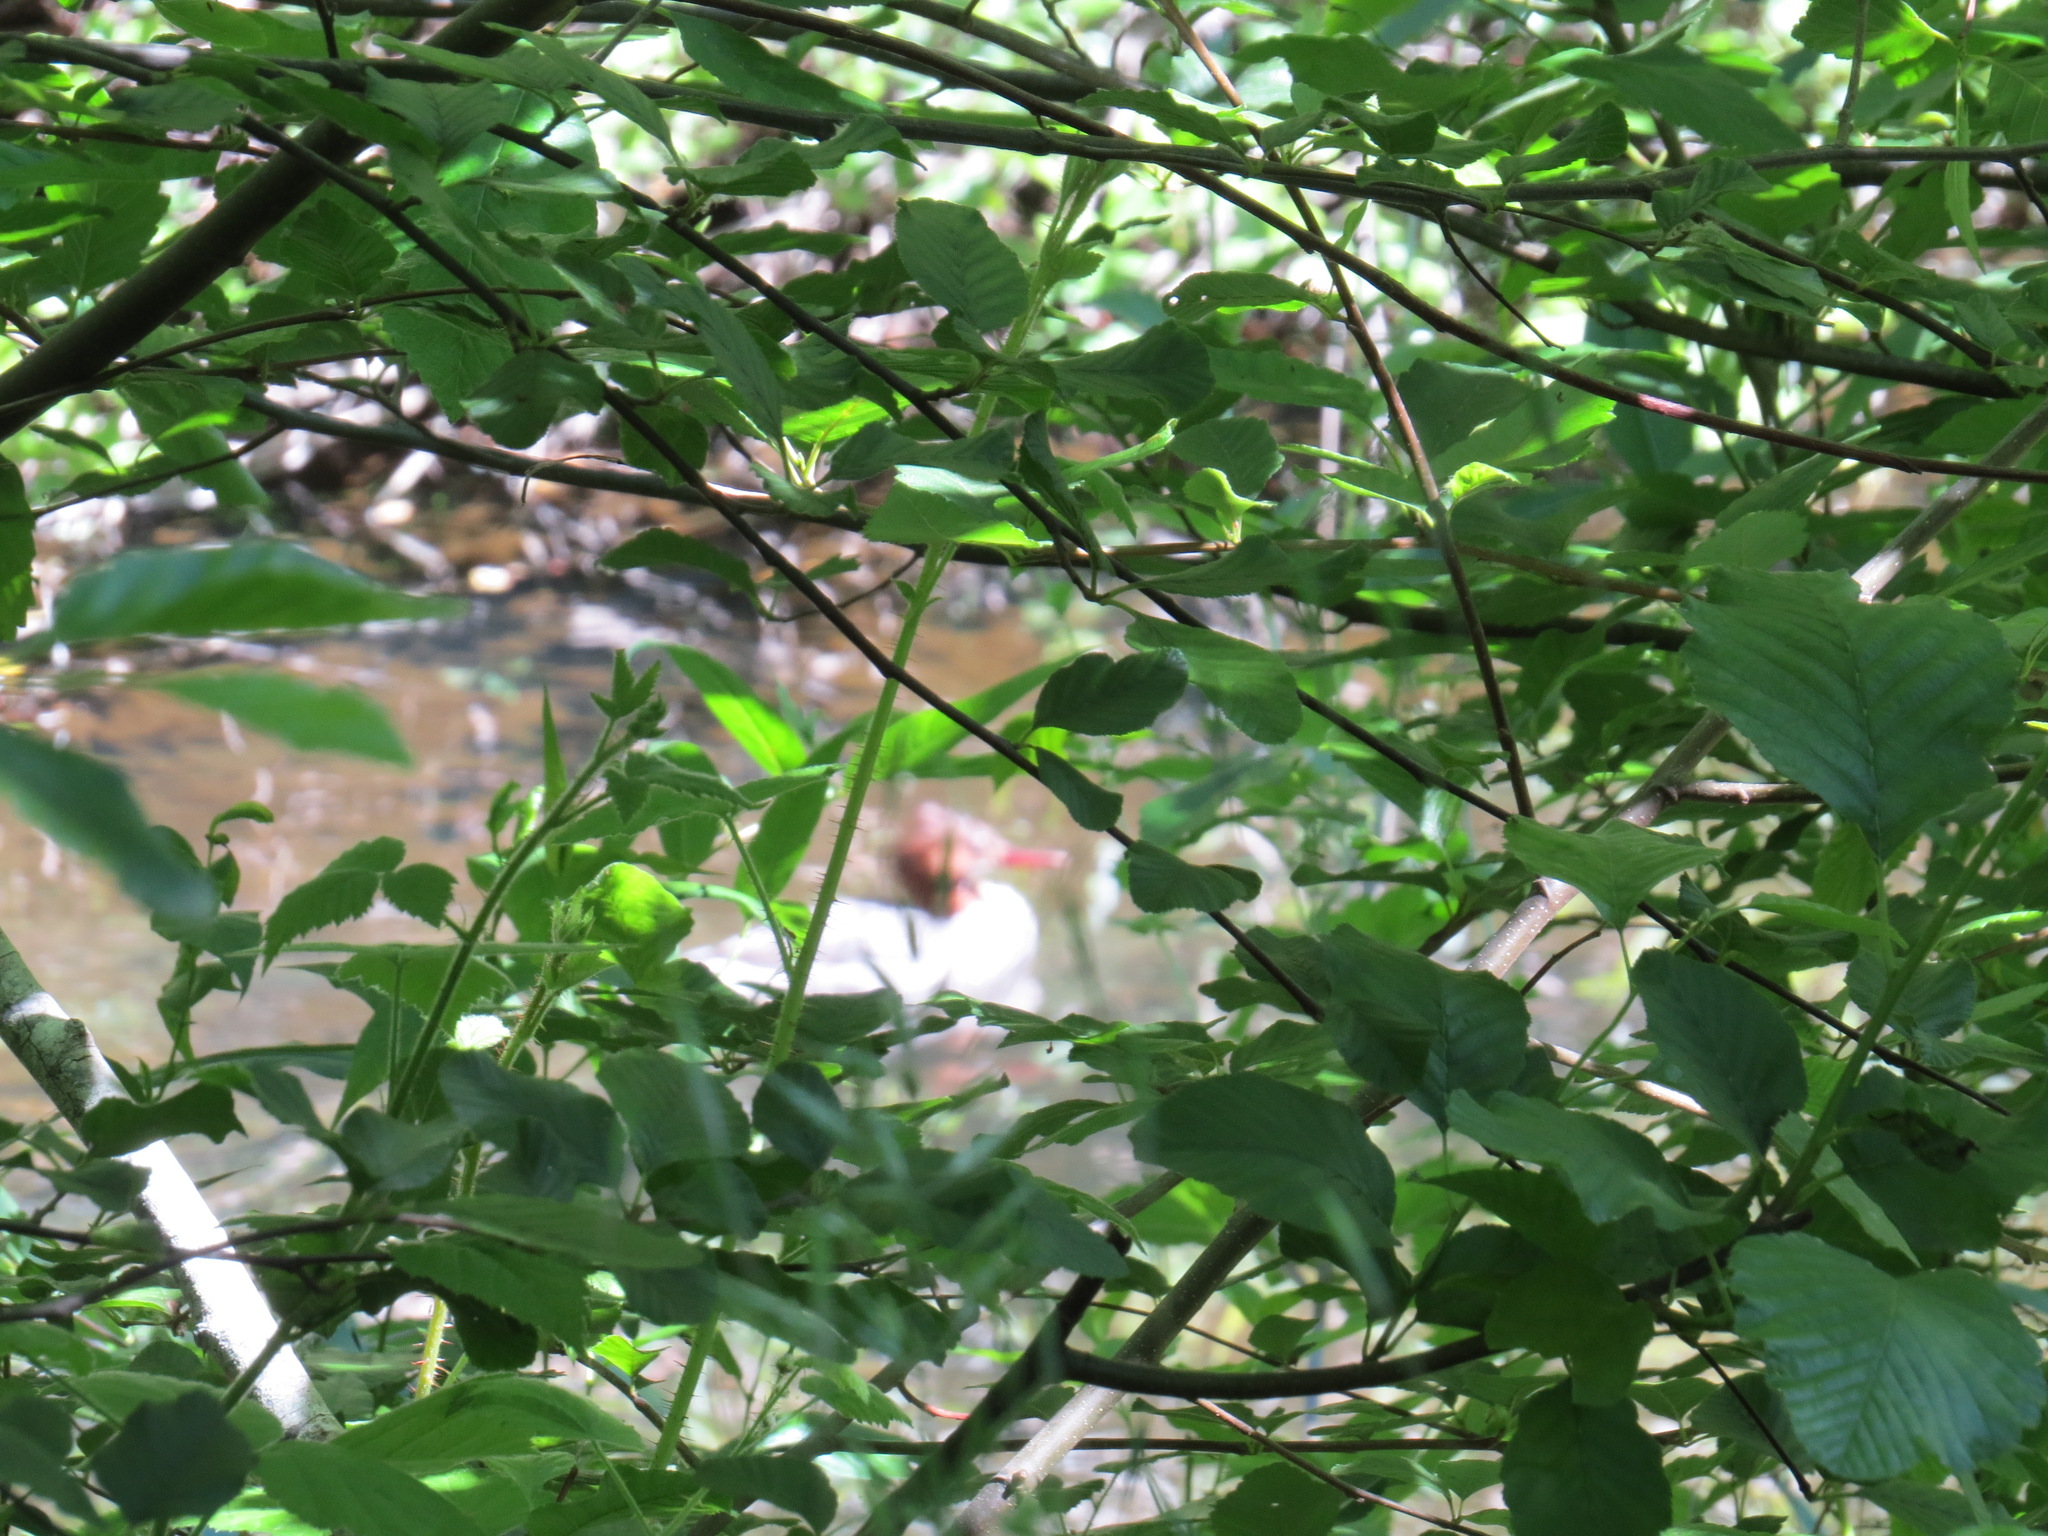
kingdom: Animalia
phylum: Chordata
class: Aves
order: Anseriformes
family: Anatidae
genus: Mergus
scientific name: Mergus merganser
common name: Common merganser
